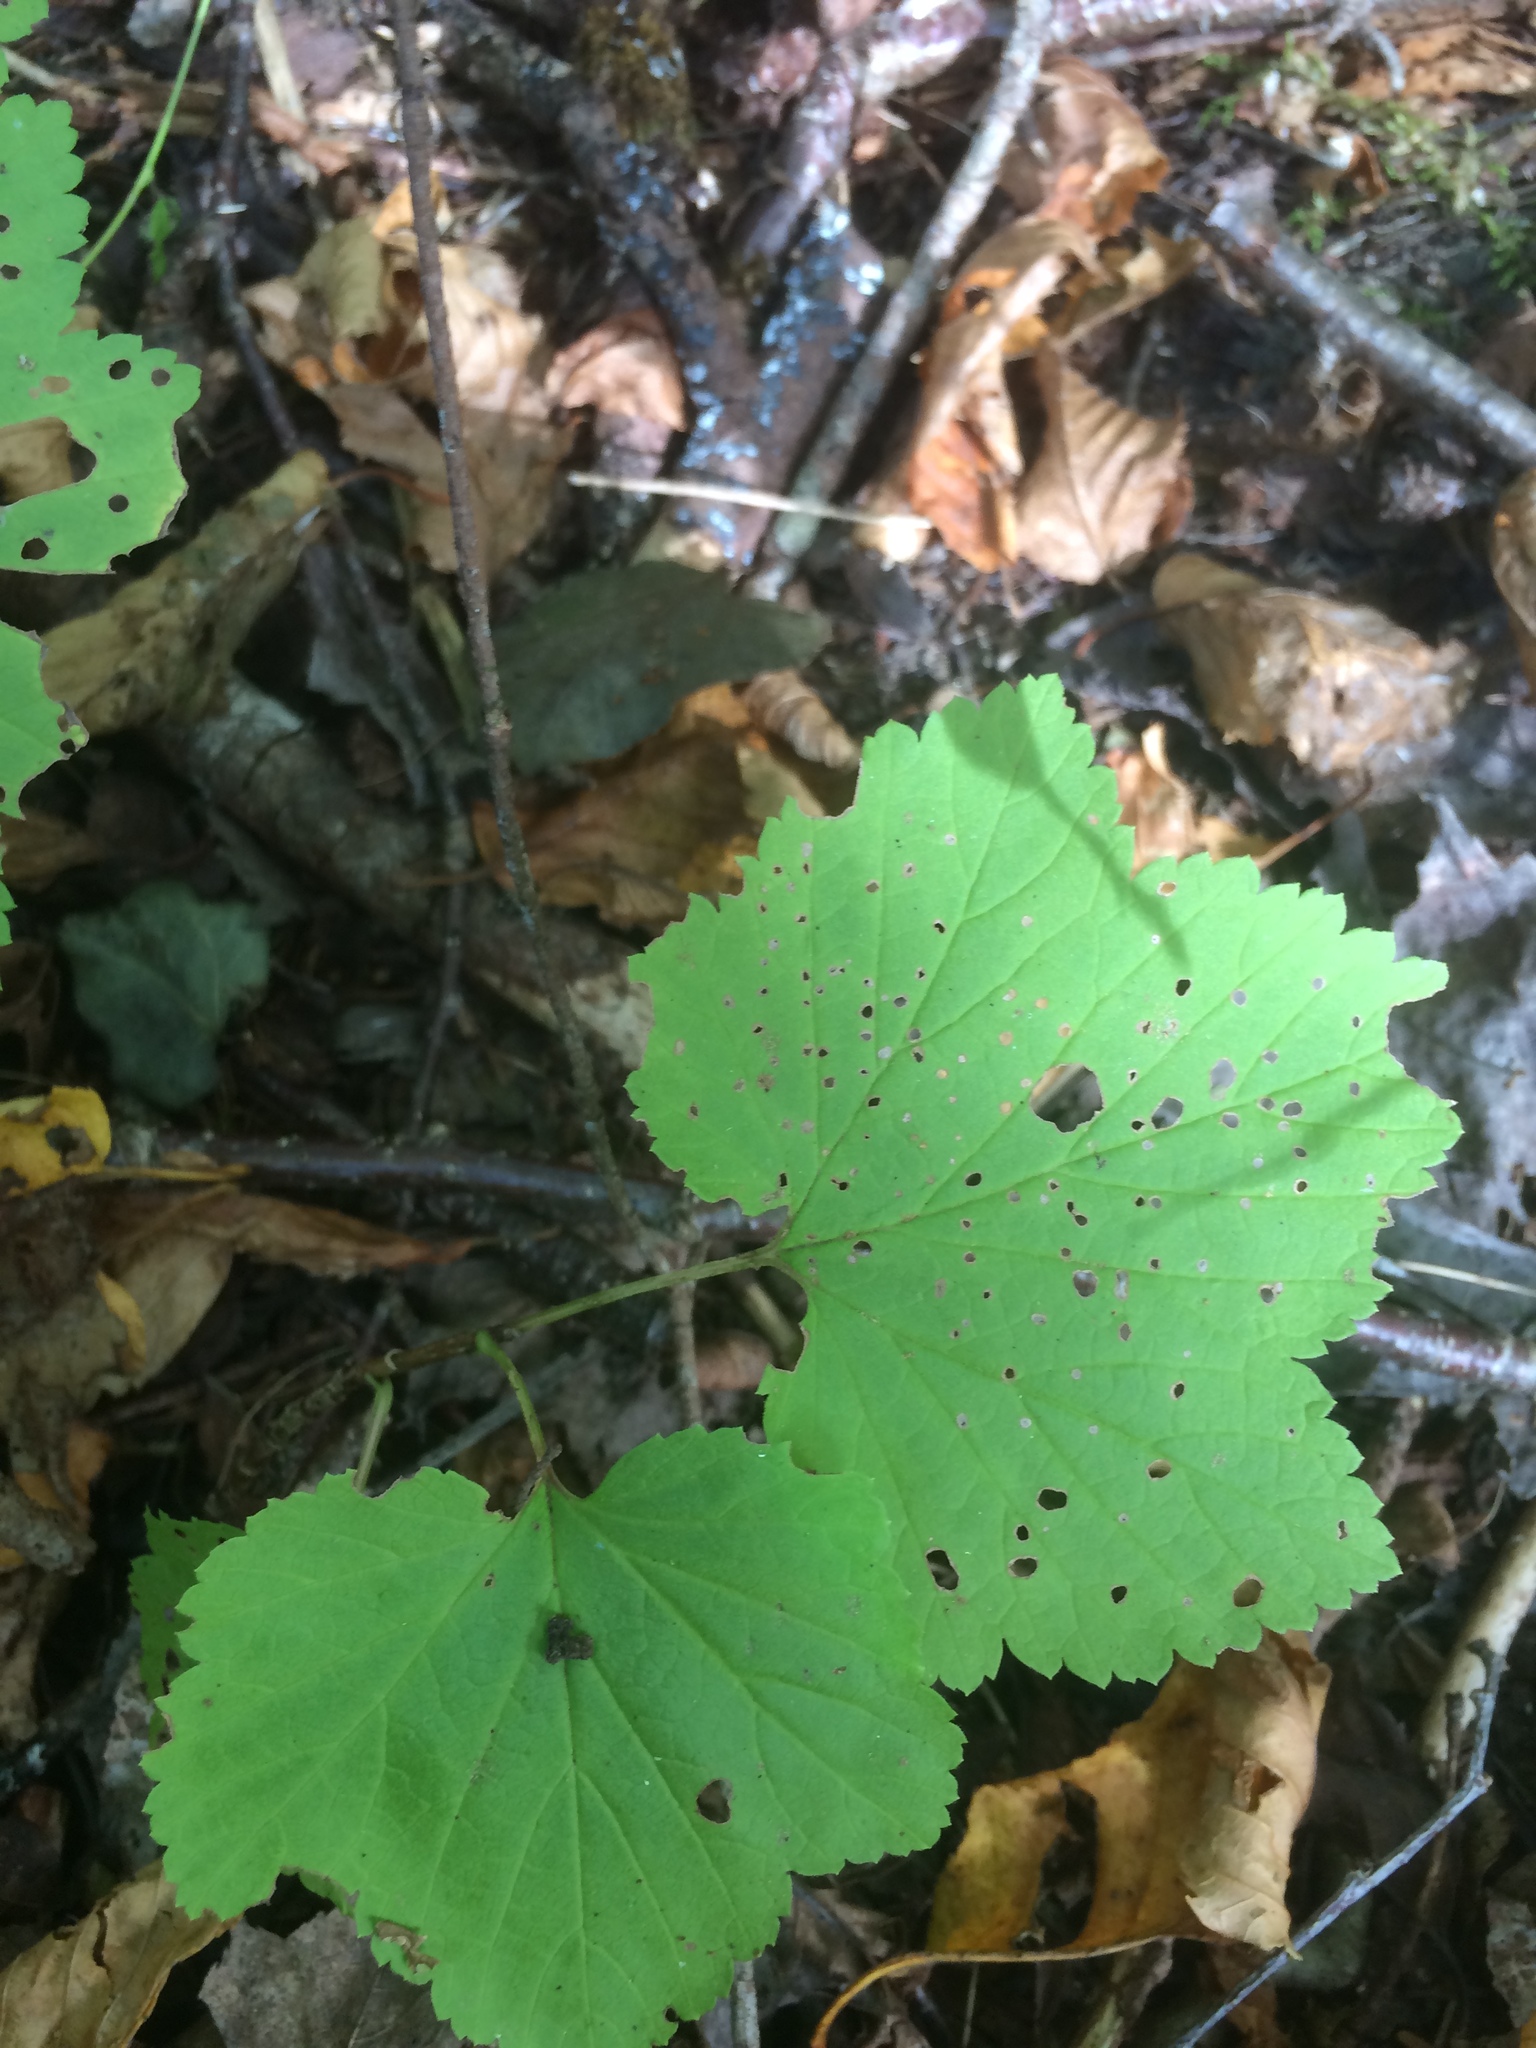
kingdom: Plantae
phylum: Tracheophyta
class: Magnoliopsida
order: Saxifragales
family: Grossulariaceae
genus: Ribes
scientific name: Ribes triste
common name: Swamp red currant
